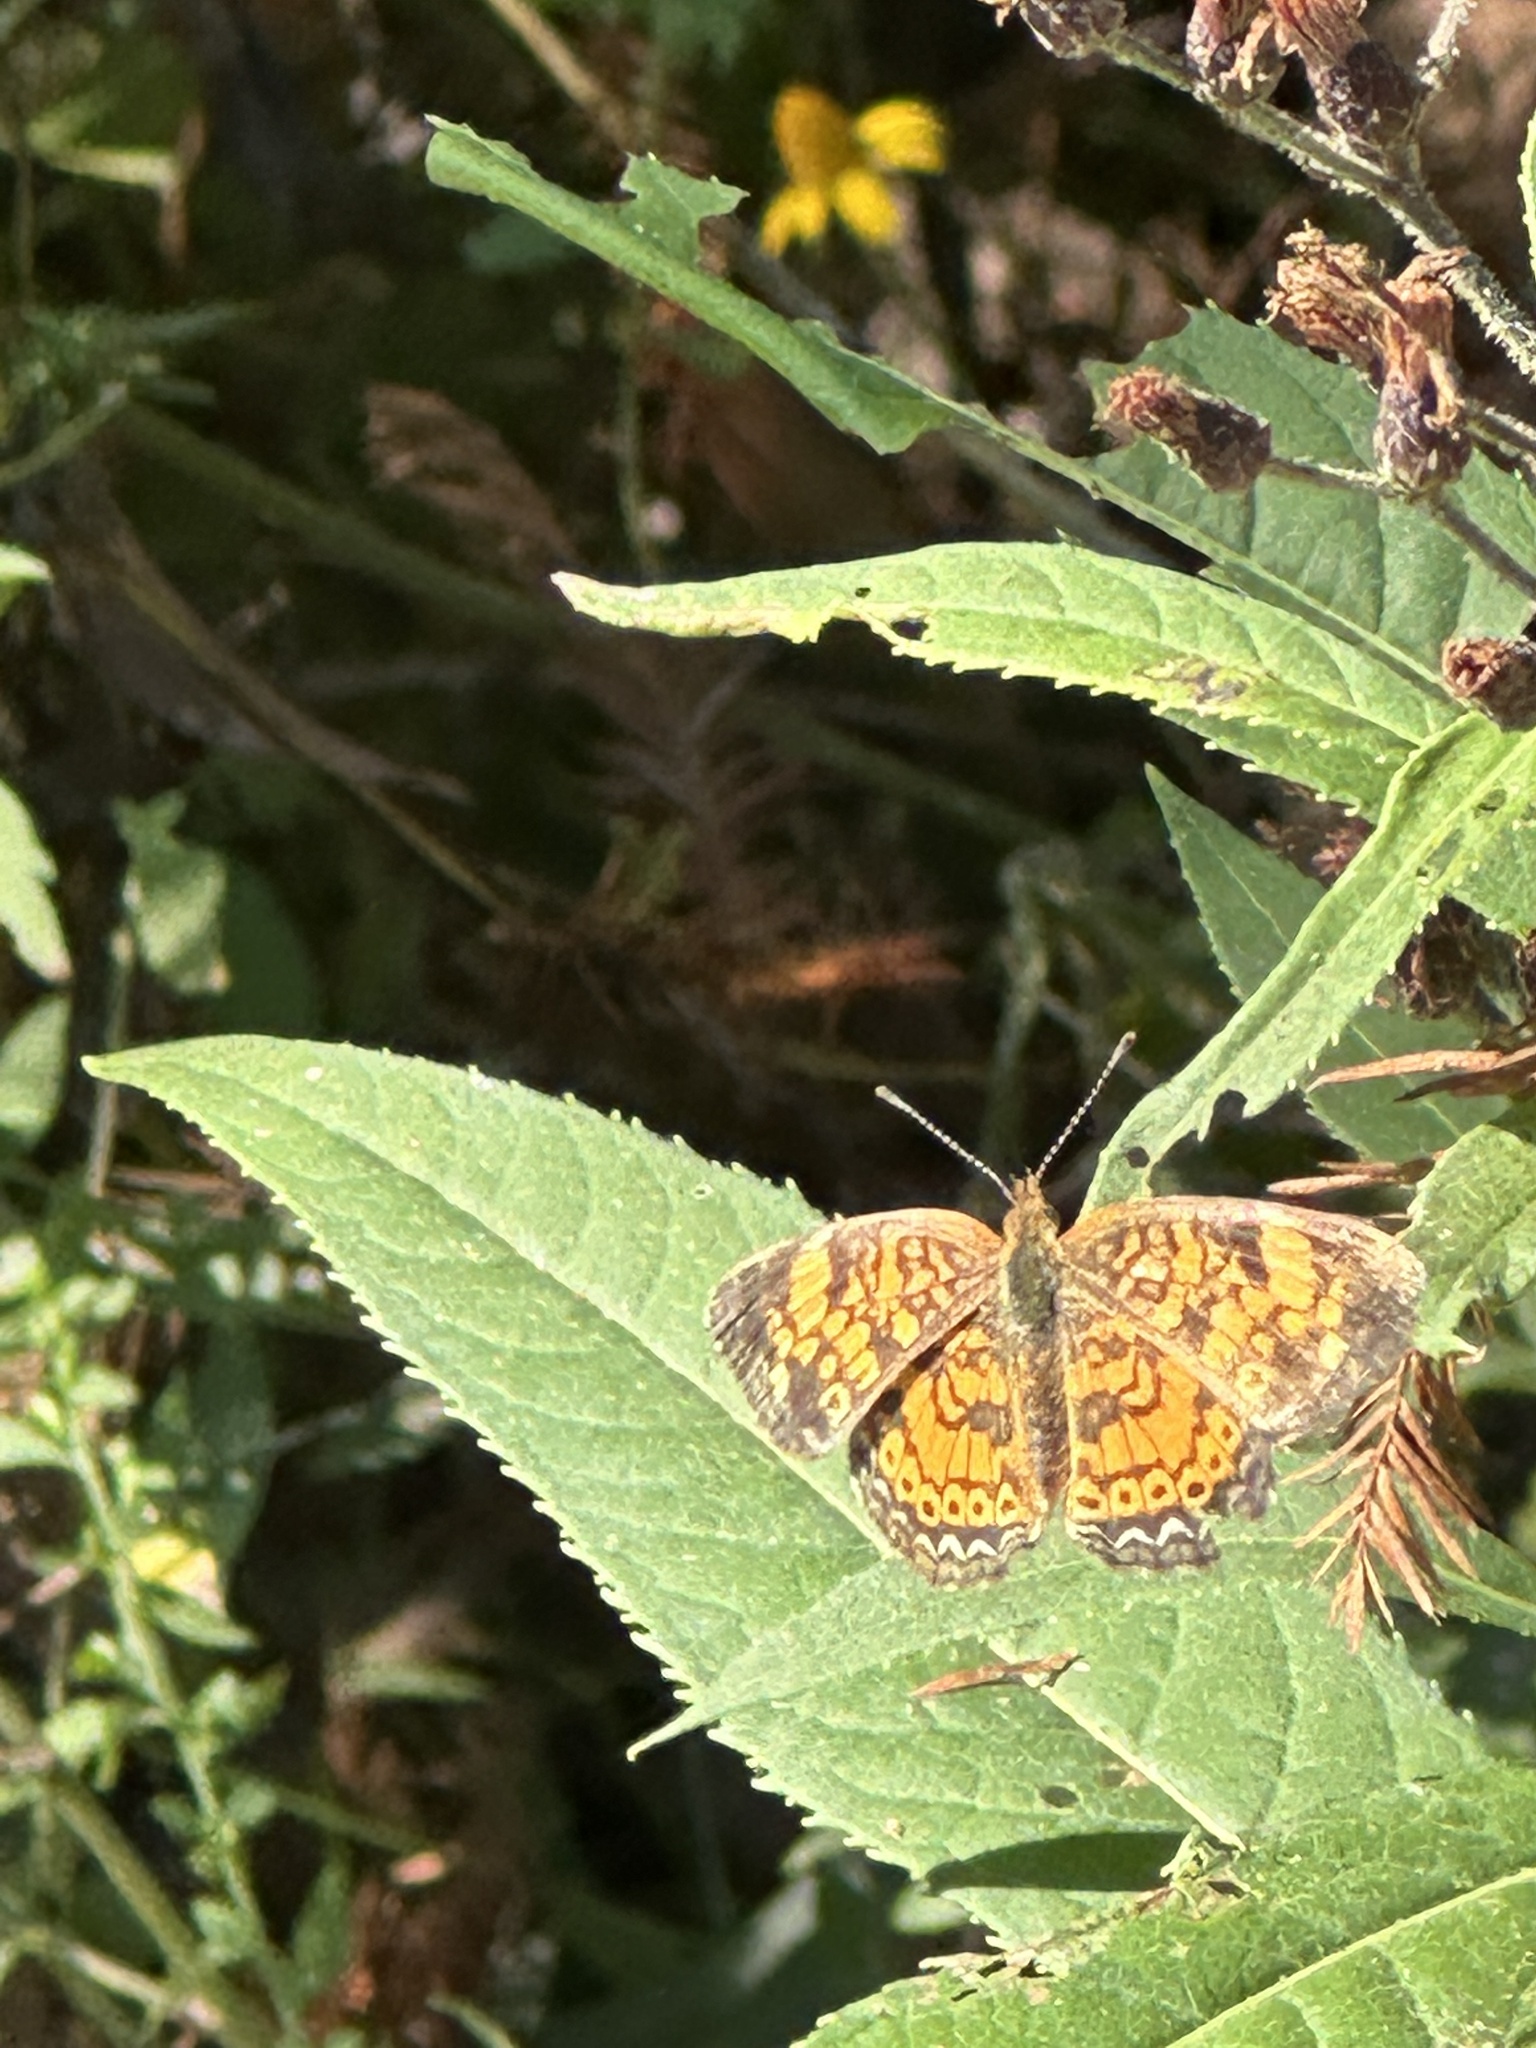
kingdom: Animalia
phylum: Arthropoda
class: Insecta
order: Lepidoptera
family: Nymphalidae
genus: Phyciodes
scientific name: Phyciodes tharos
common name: Pearl crescent
